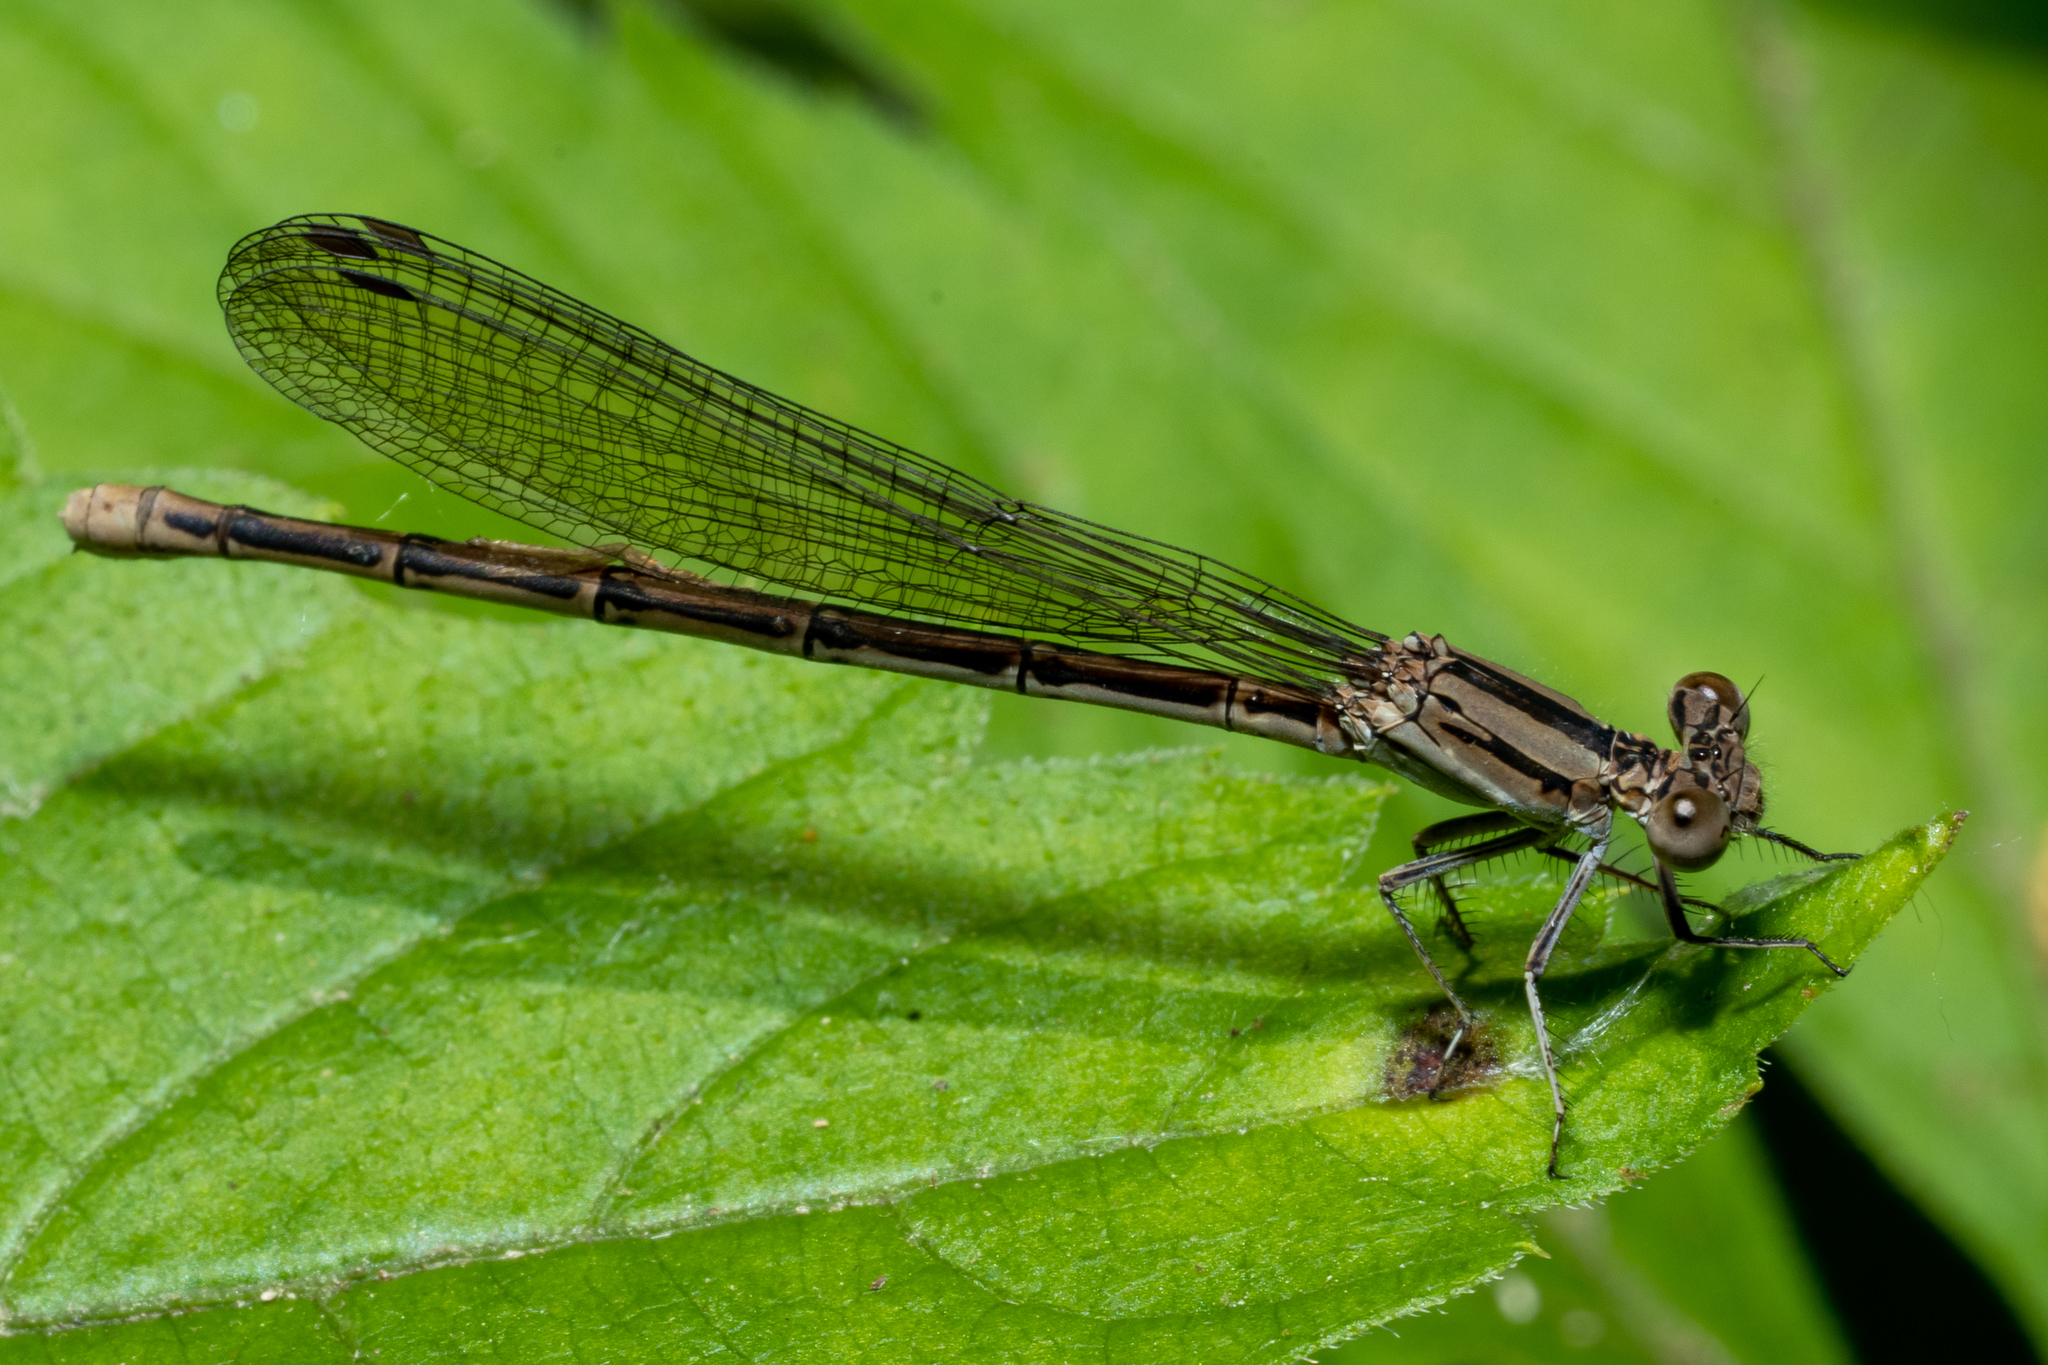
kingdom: Animalia
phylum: Arthropoda
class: Insecta
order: Odonata
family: Coenagrionidae
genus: Argia
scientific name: Argia fumipennis
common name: Variable dancer
